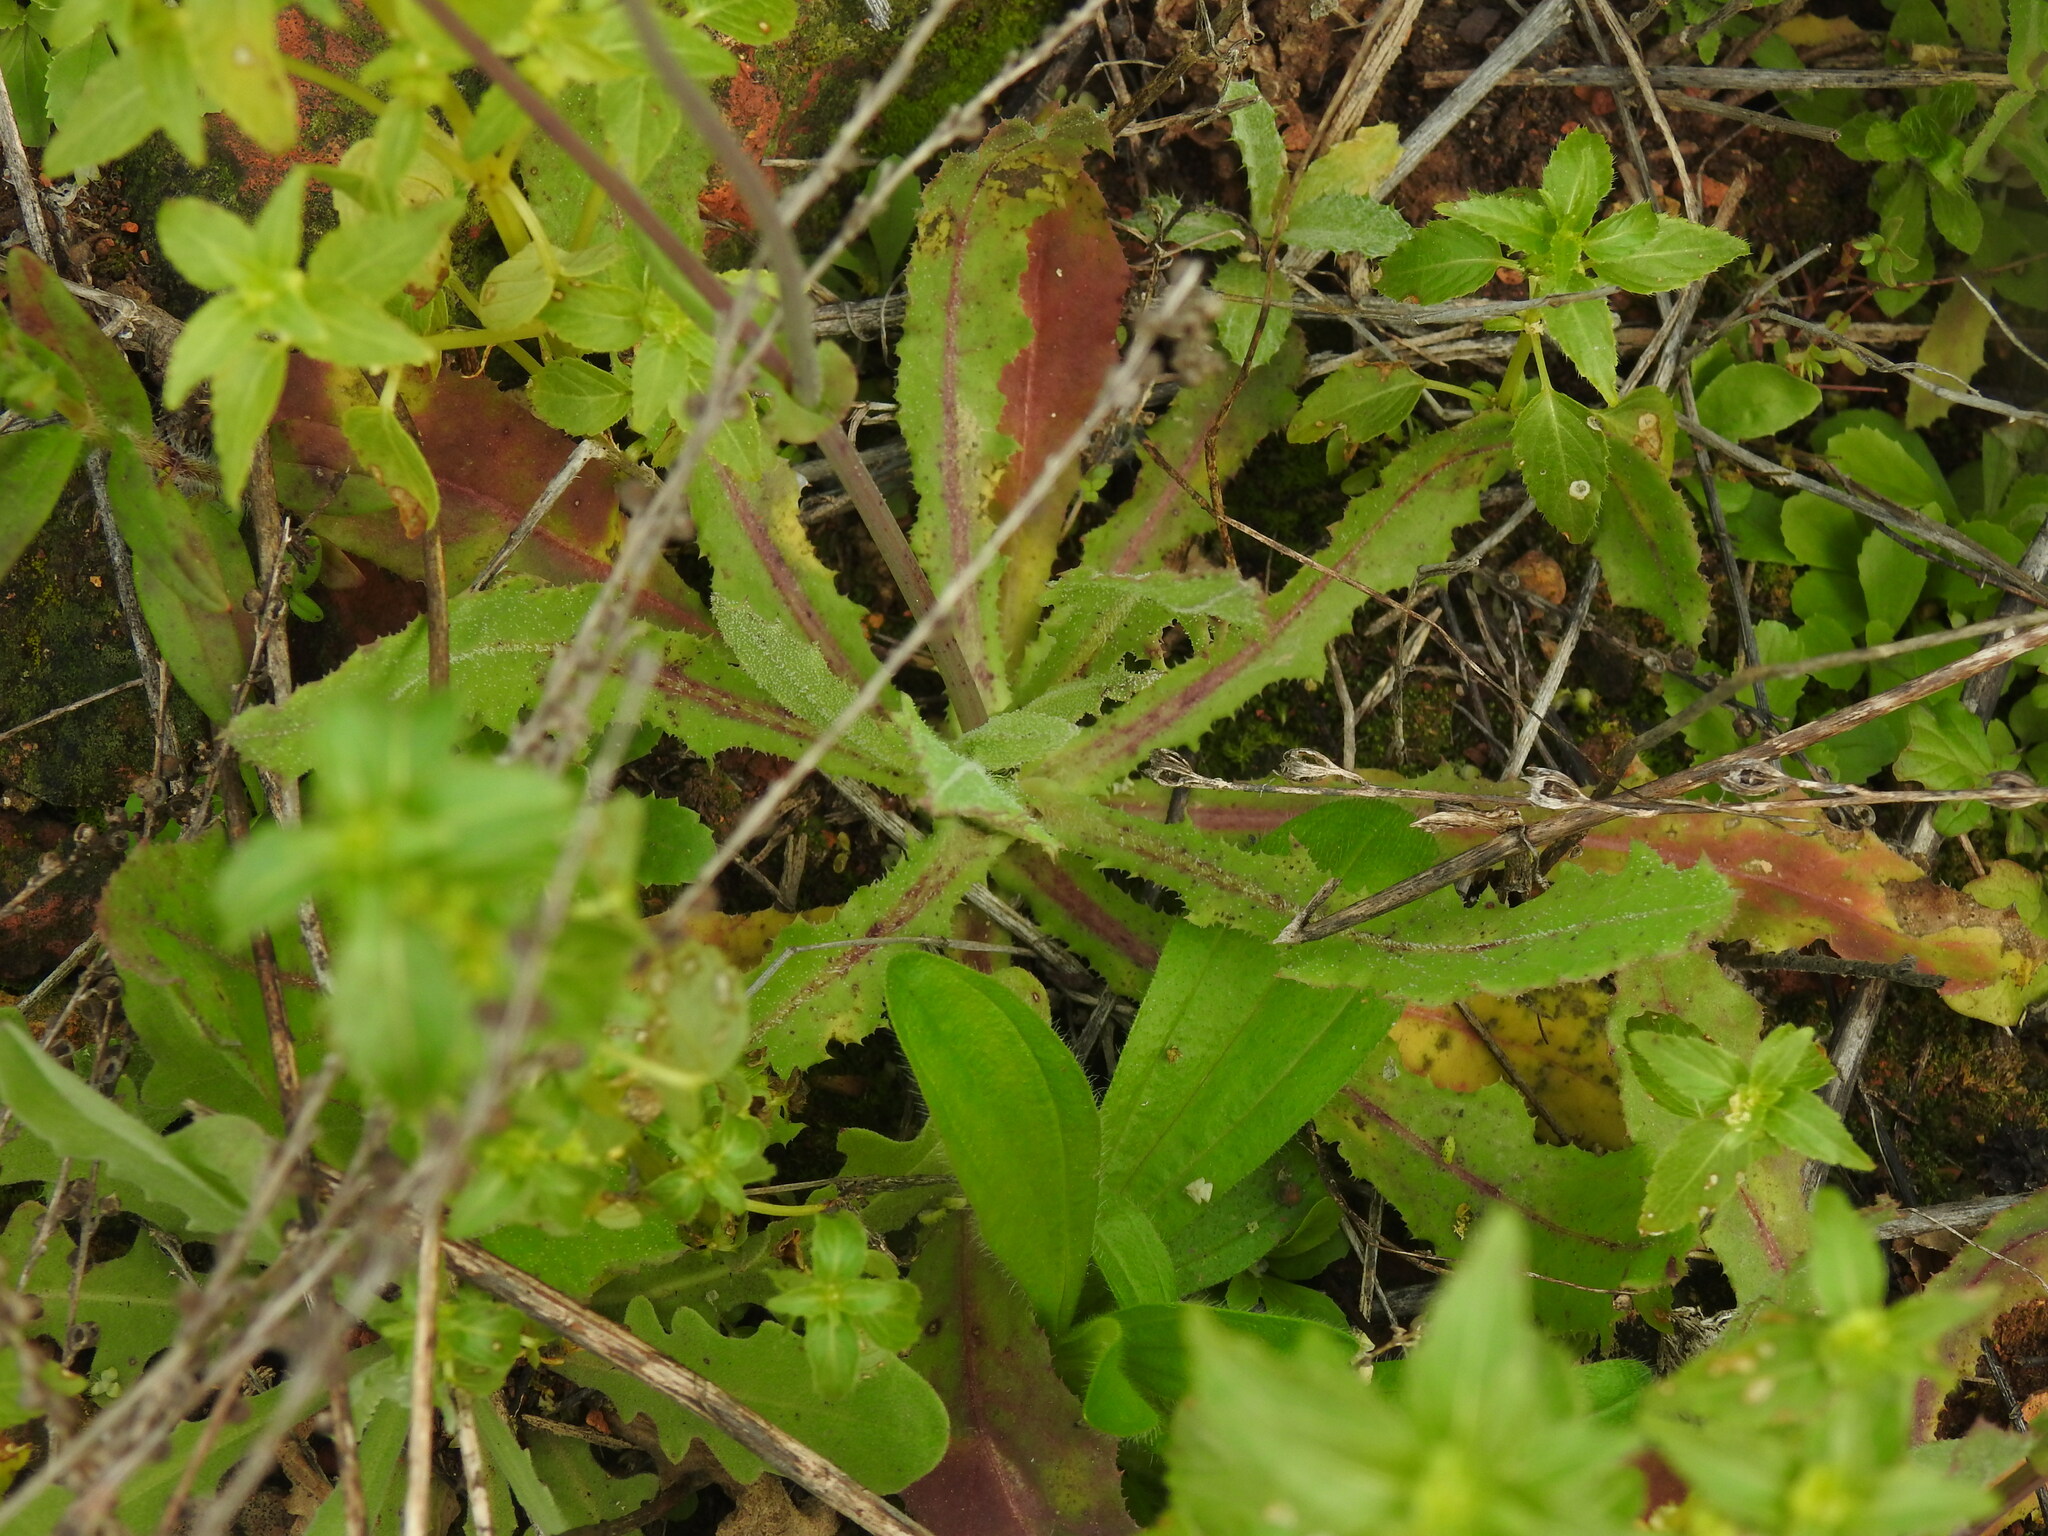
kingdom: Plantae
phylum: Tracheophyta
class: Magnoliopsida
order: Asterales
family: Asteraceae
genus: Reichardia
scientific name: Reichardia intermedia
